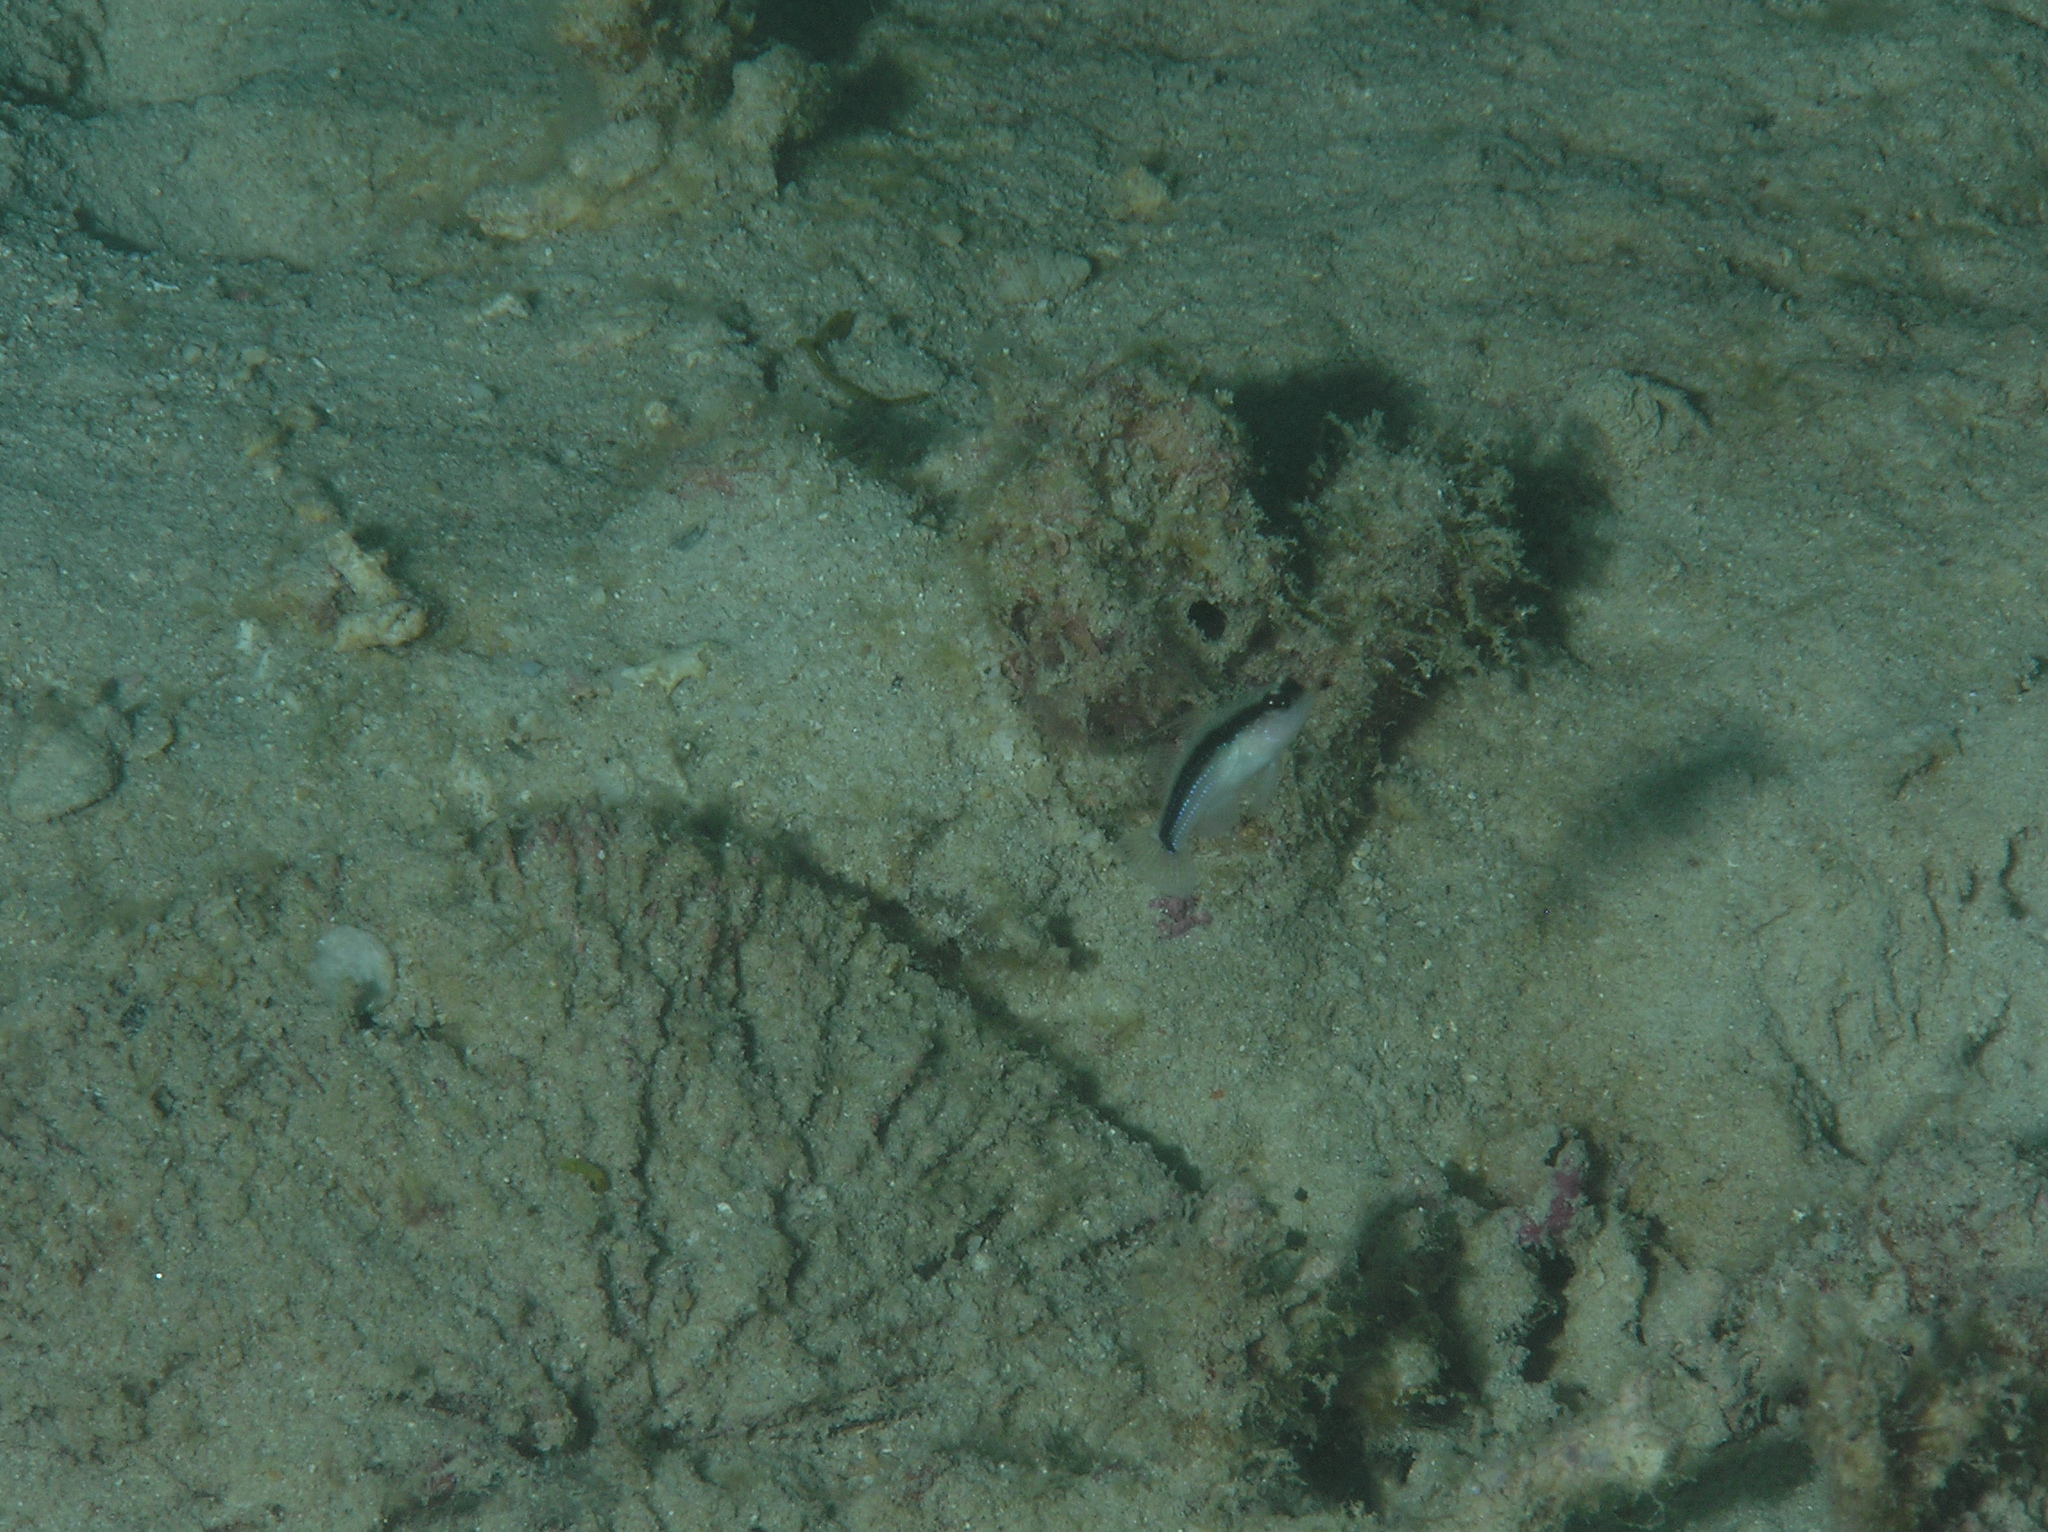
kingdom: Animalia
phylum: Chordata
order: Perciformes
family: Gobiidae
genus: Asterropteryx
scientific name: Asterropteryx striata
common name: Striped goby
